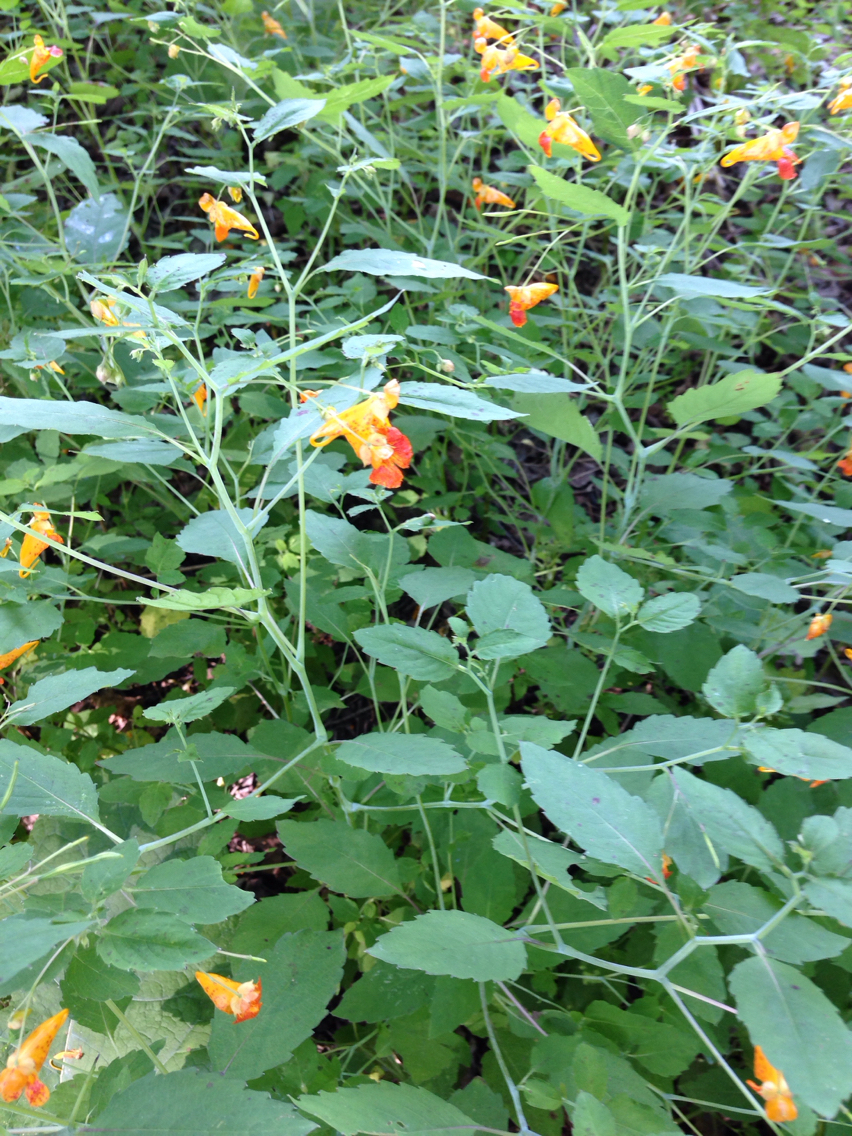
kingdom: Plantae
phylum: Tracheophyta
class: Magnoliopsida
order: Ericales
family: Balsaminaceae
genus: Impatiens
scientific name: Impatiens capensis
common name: Orange balsam
